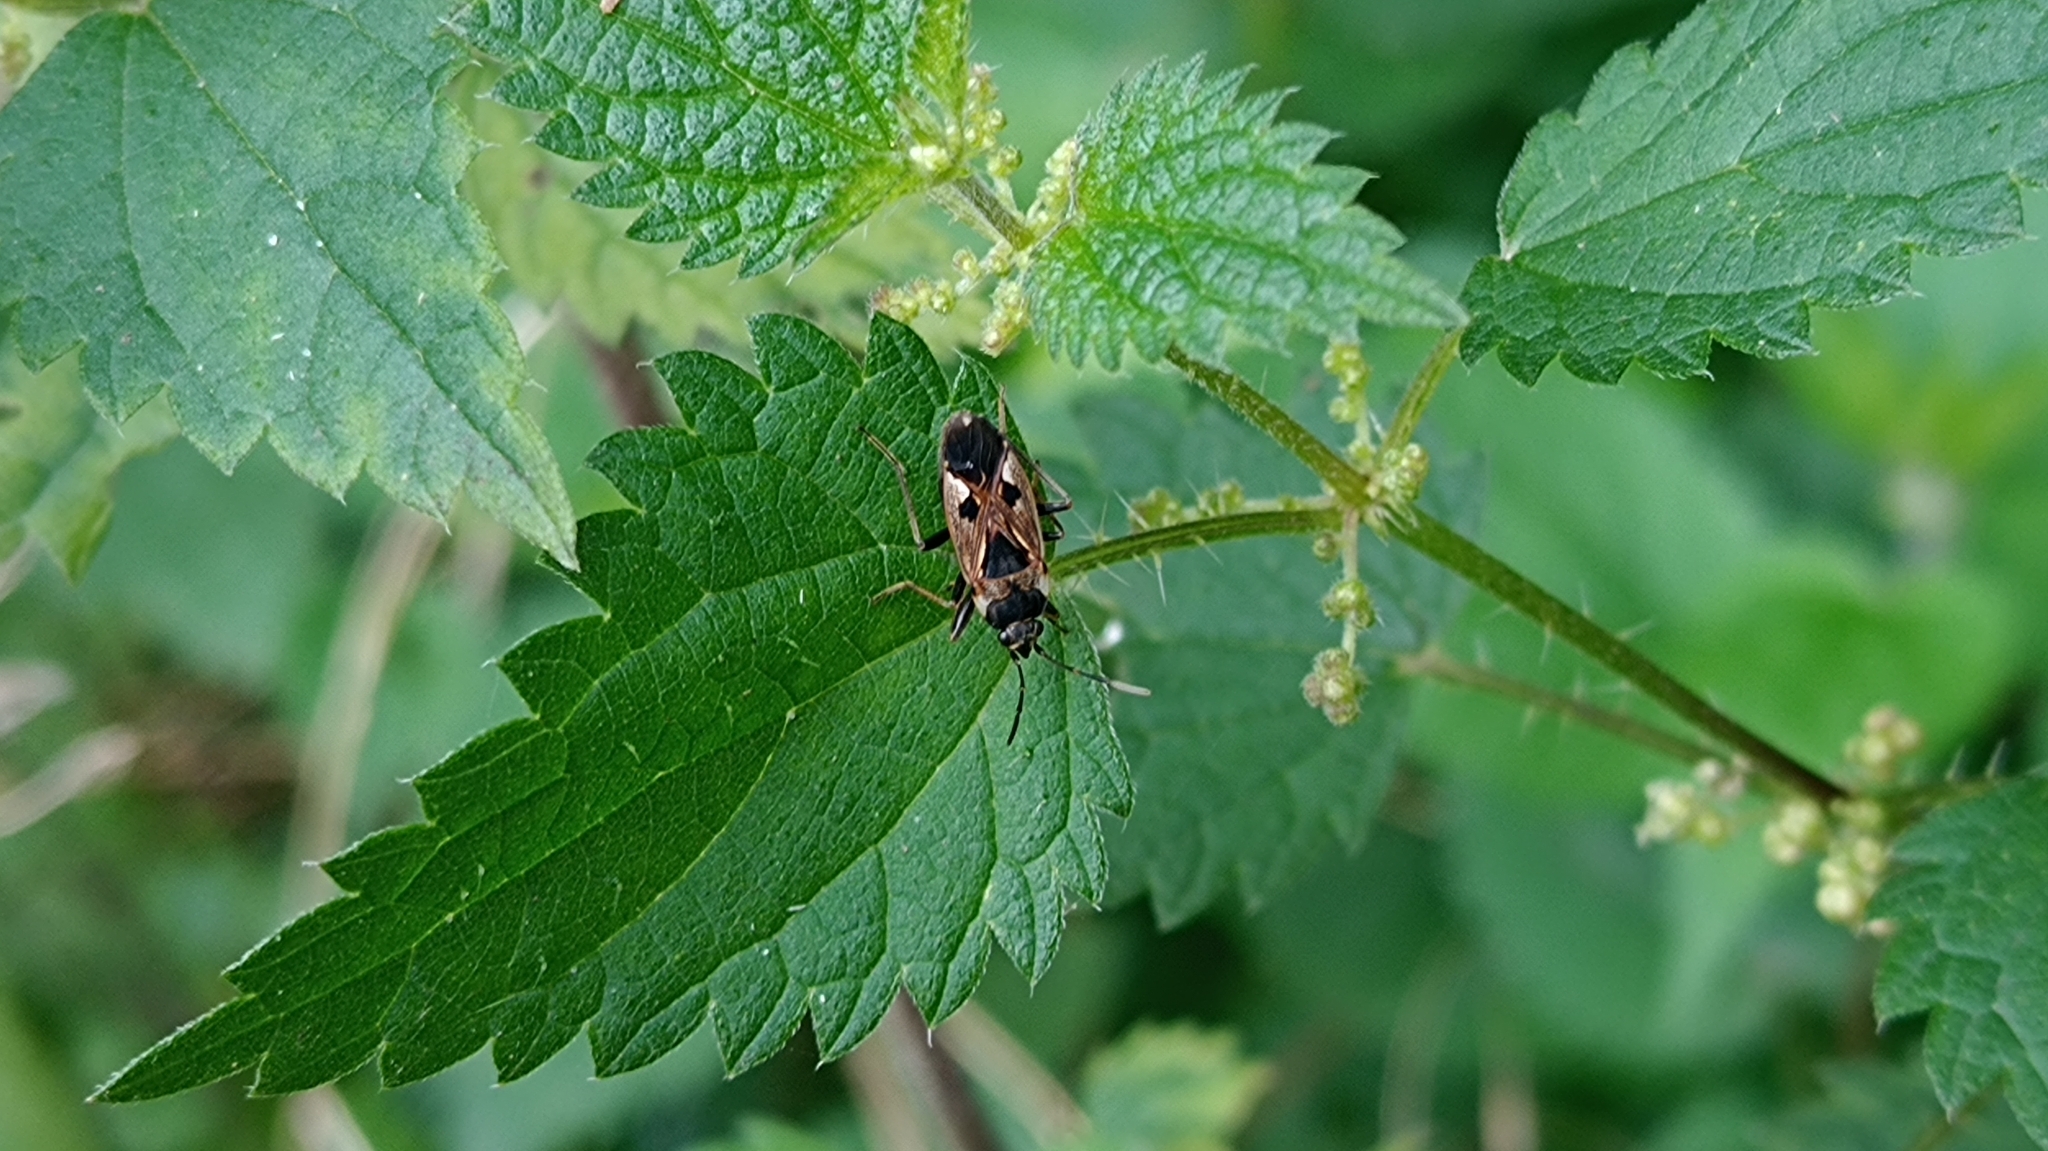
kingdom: Animalia
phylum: Arthropoda
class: Insecta
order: Hemiptera
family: Rhyparochromidae
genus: Rhyparochromus
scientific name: Rhyparochromus vulgaris
